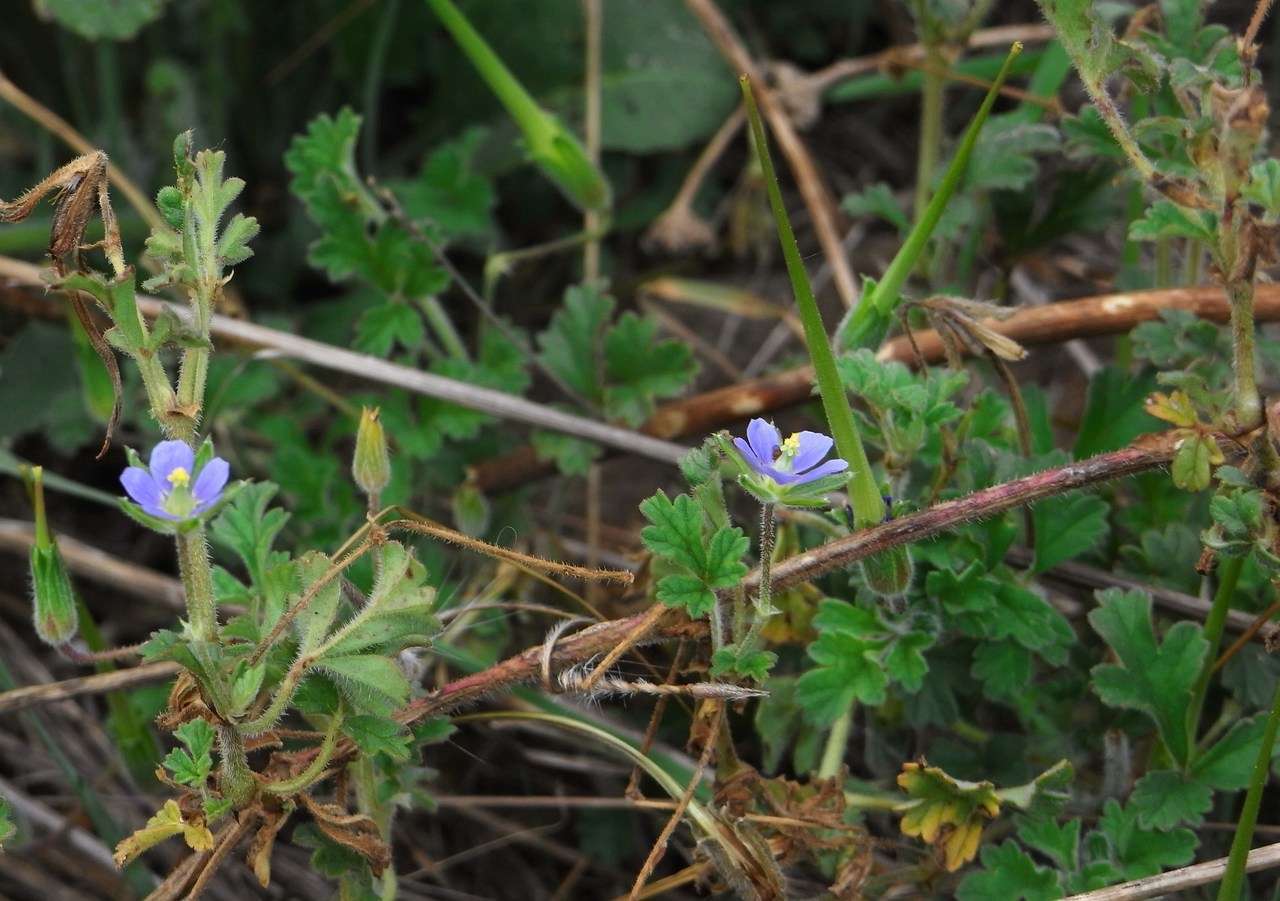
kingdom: Plantae
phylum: Tracheophyta
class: Magnoliopsida
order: Geraniales
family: Geraniaceae
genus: Erodium
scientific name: Erodium crinitum
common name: Eastern stork's-bill
